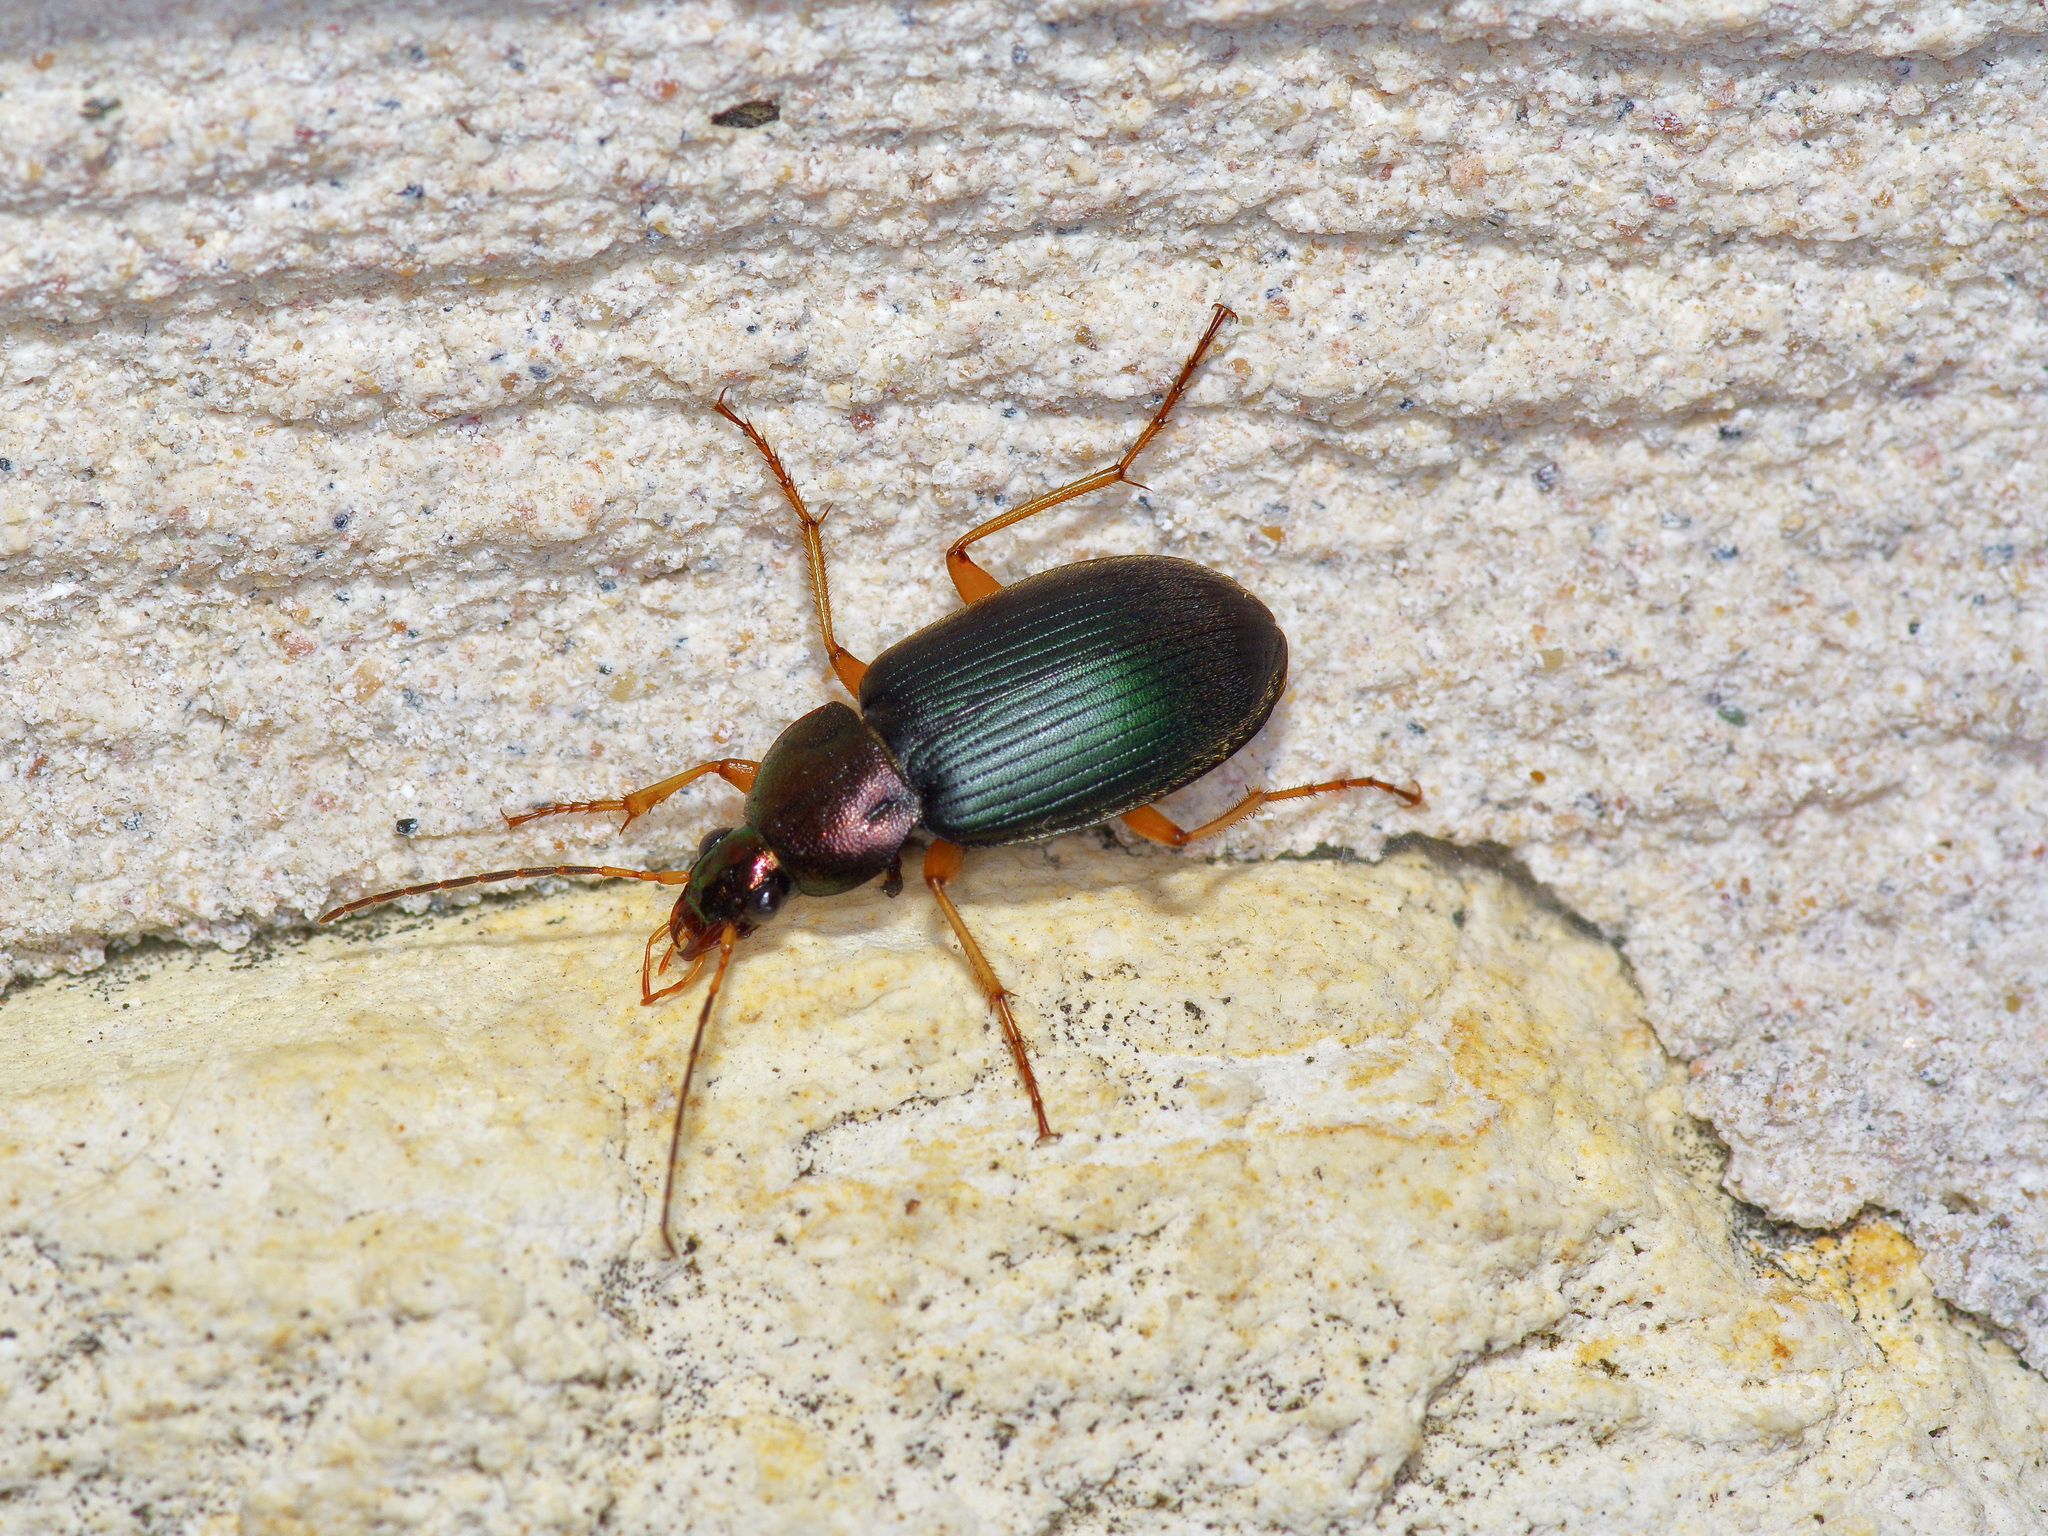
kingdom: Animalia
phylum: Arthropoda
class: Insecta
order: Coleoptera
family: Carabidae
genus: Chlaenius
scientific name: Chlaenius erythropus
